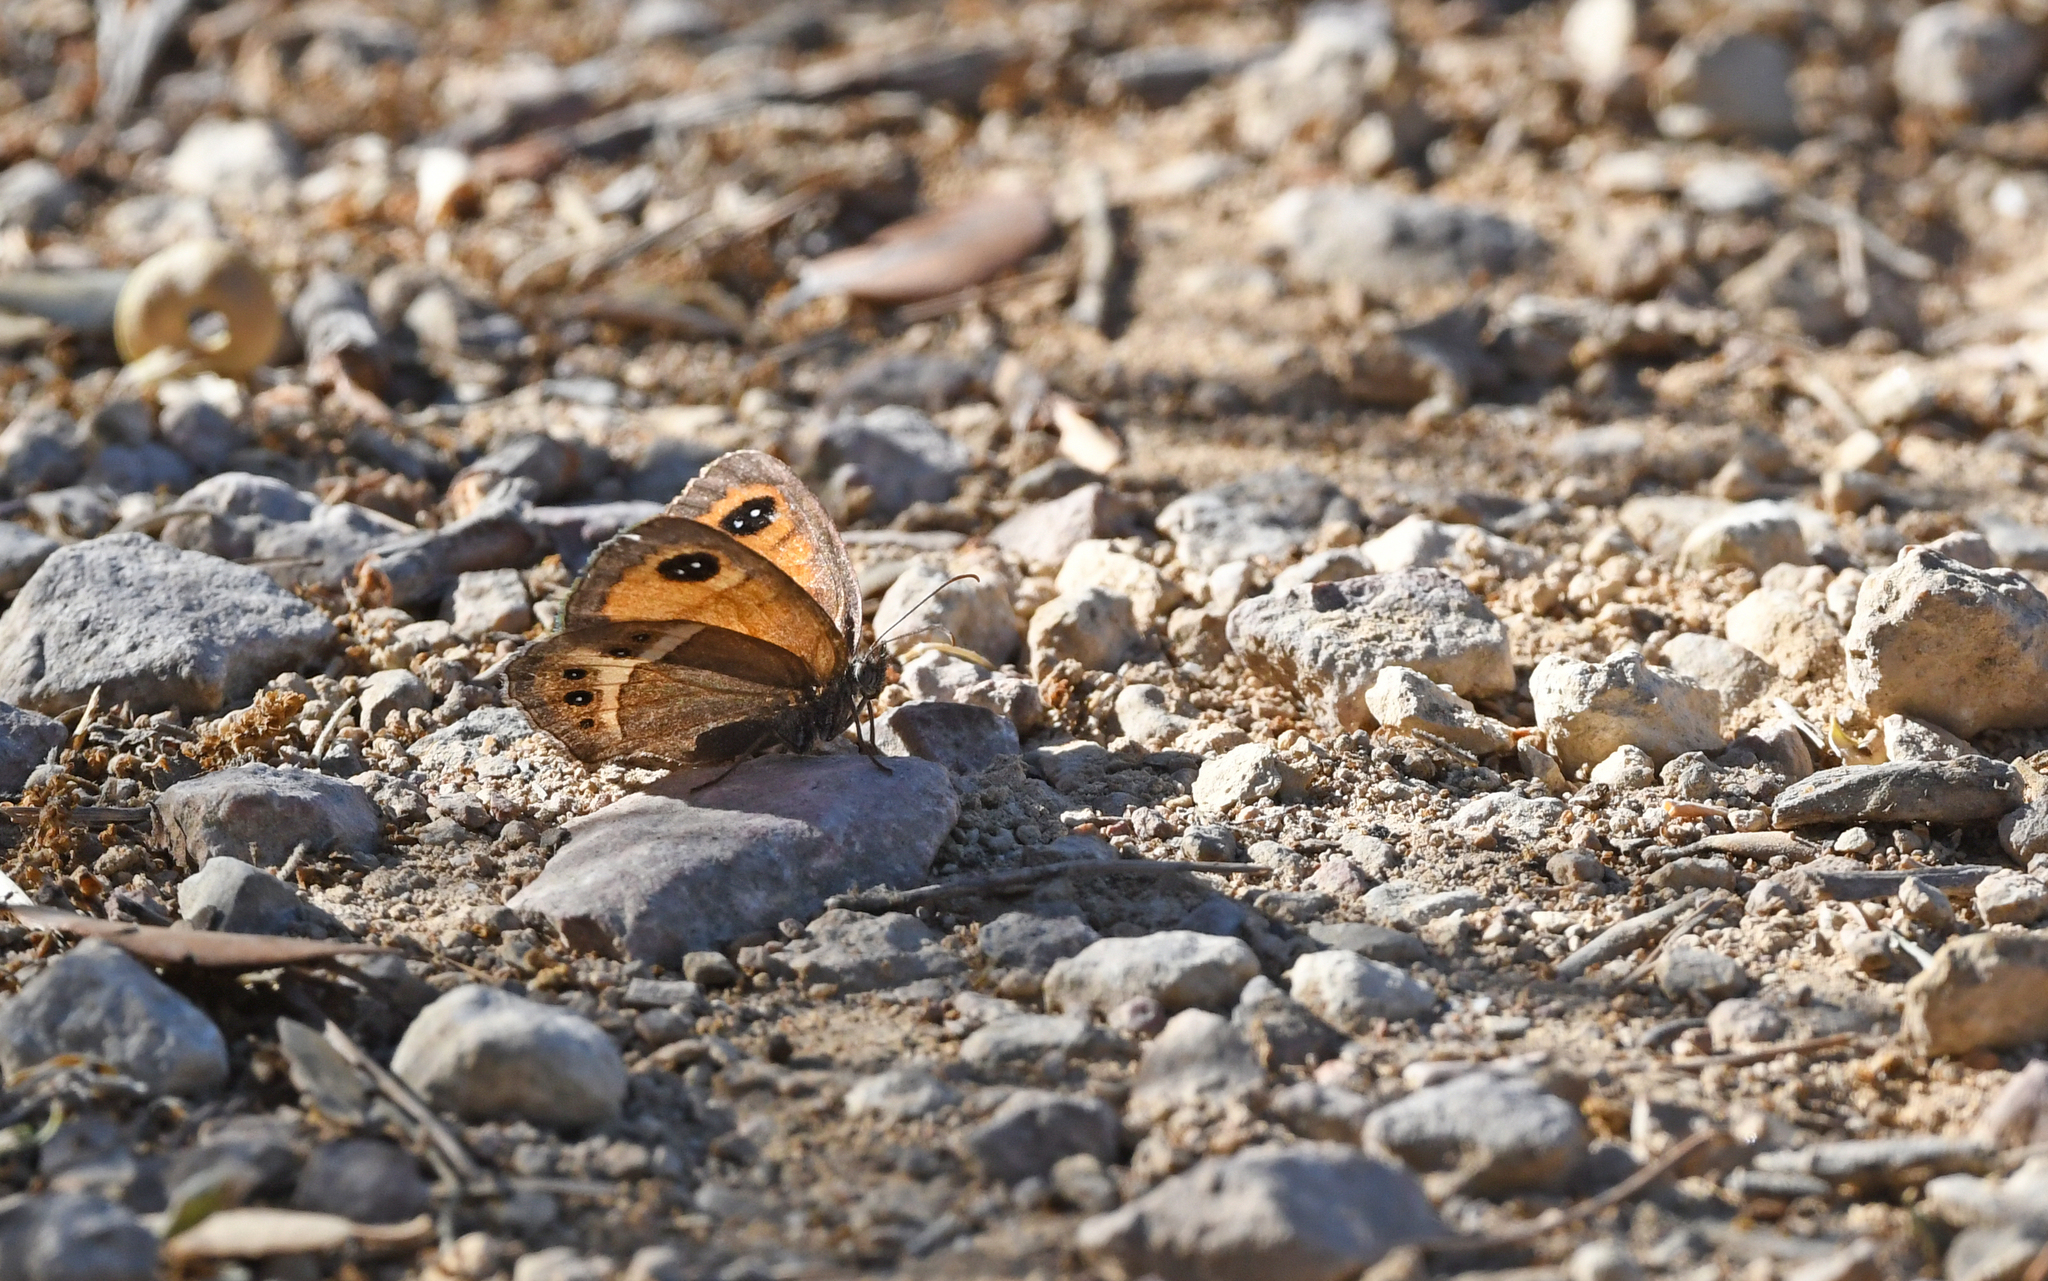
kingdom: Animalia
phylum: Arthropoda
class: Insecta
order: Lepidoptera
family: Nymphalidae
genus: Pyronia
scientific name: Pyronia bathseba
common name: Spanish gatekeeper
